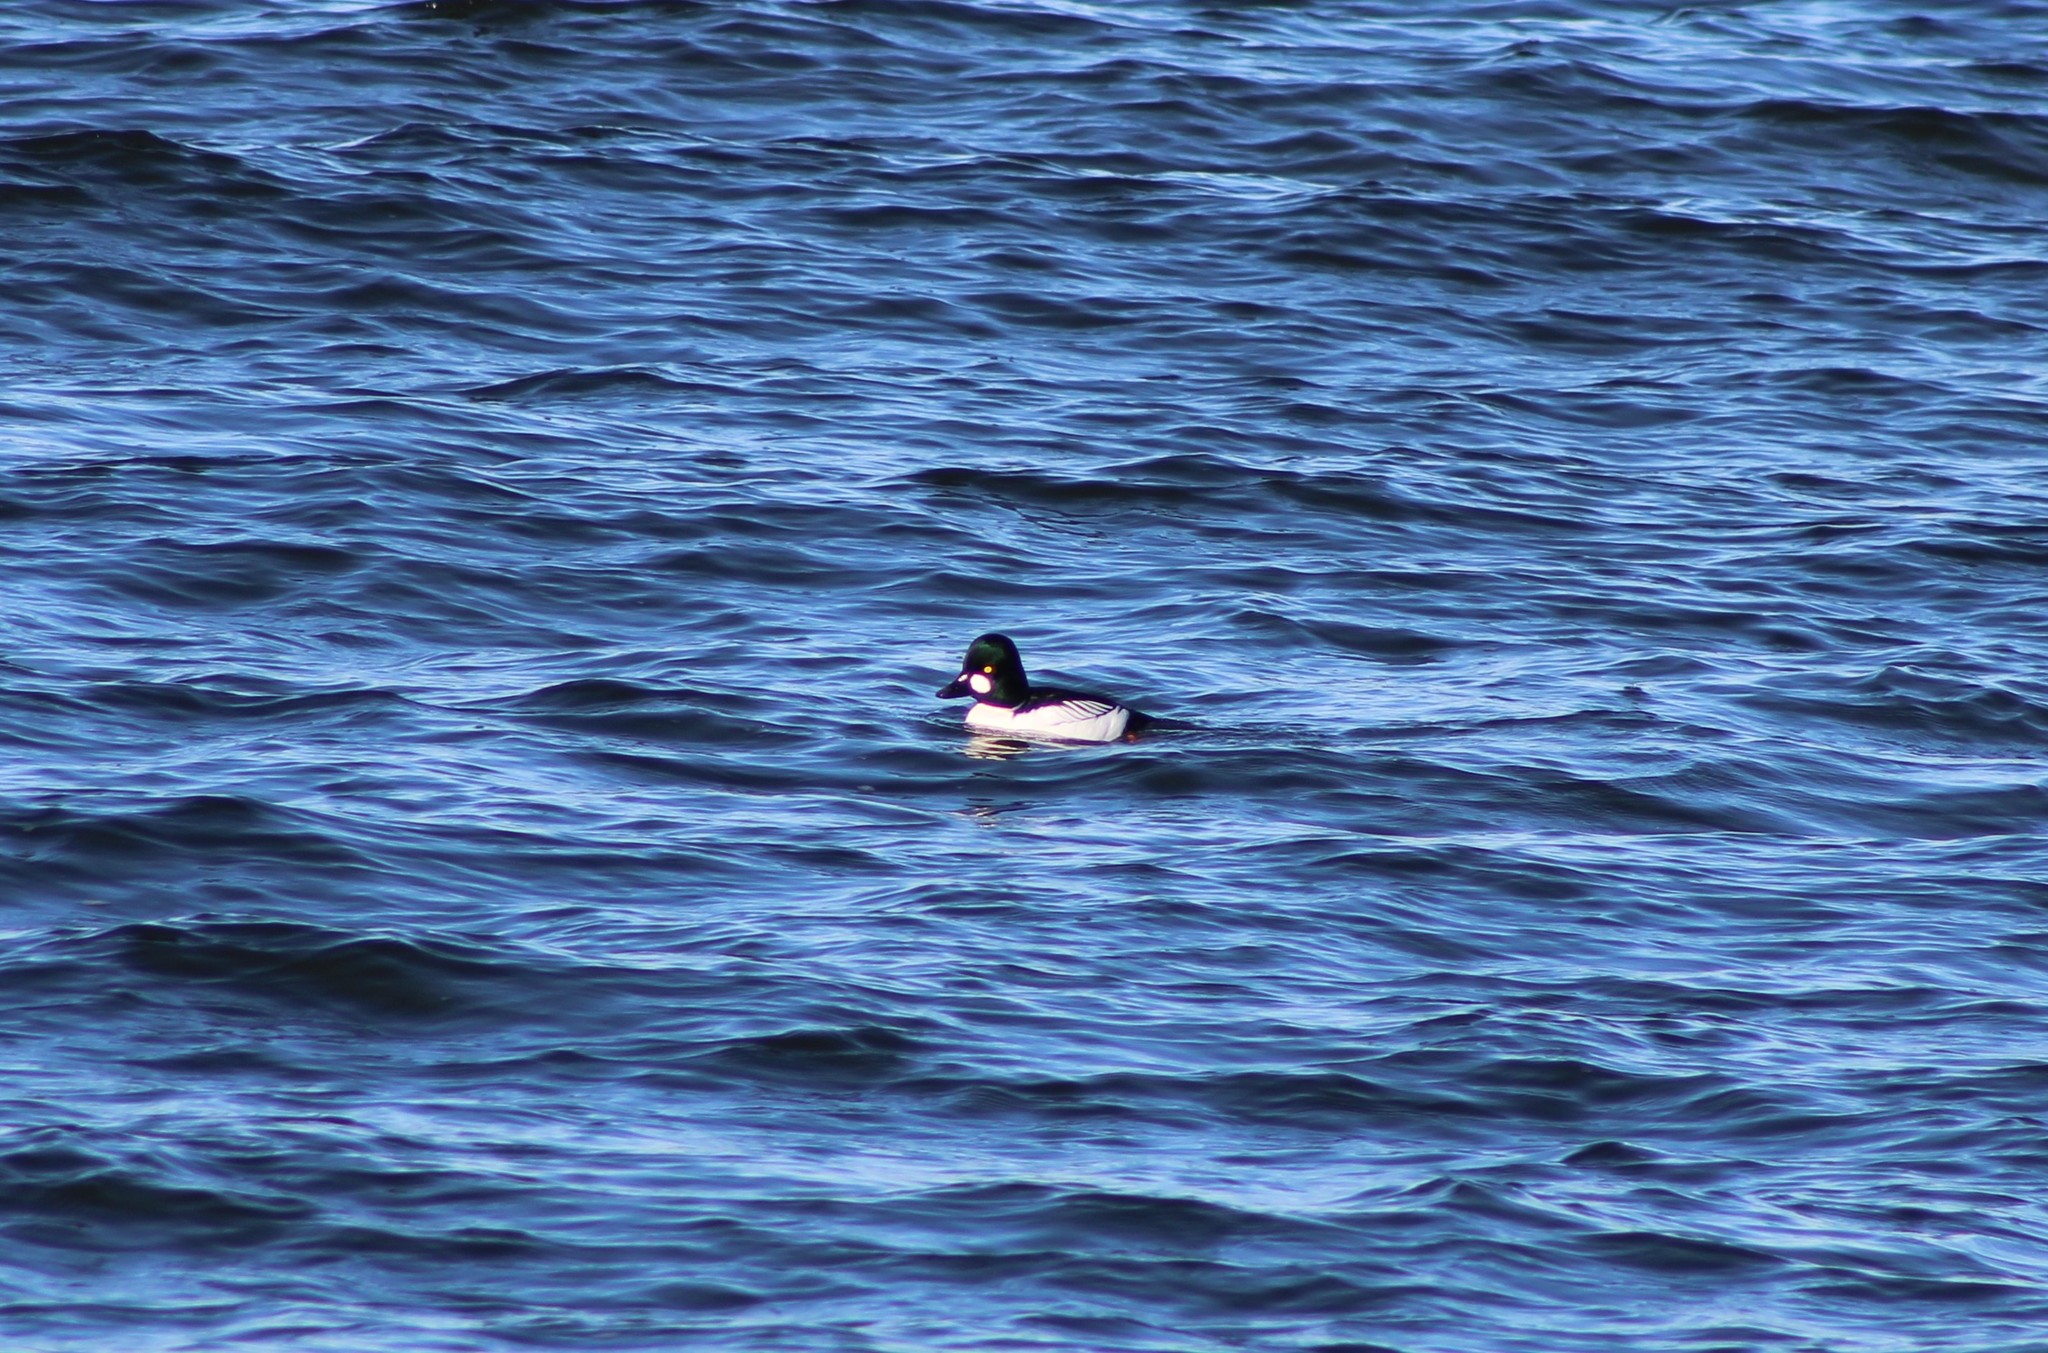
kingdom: Animalia
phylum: Chordata
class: Aves
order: Anseriformes
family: Anatidae
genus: Bucephala
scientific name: Bucephala clangula
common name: Common goldeneye
